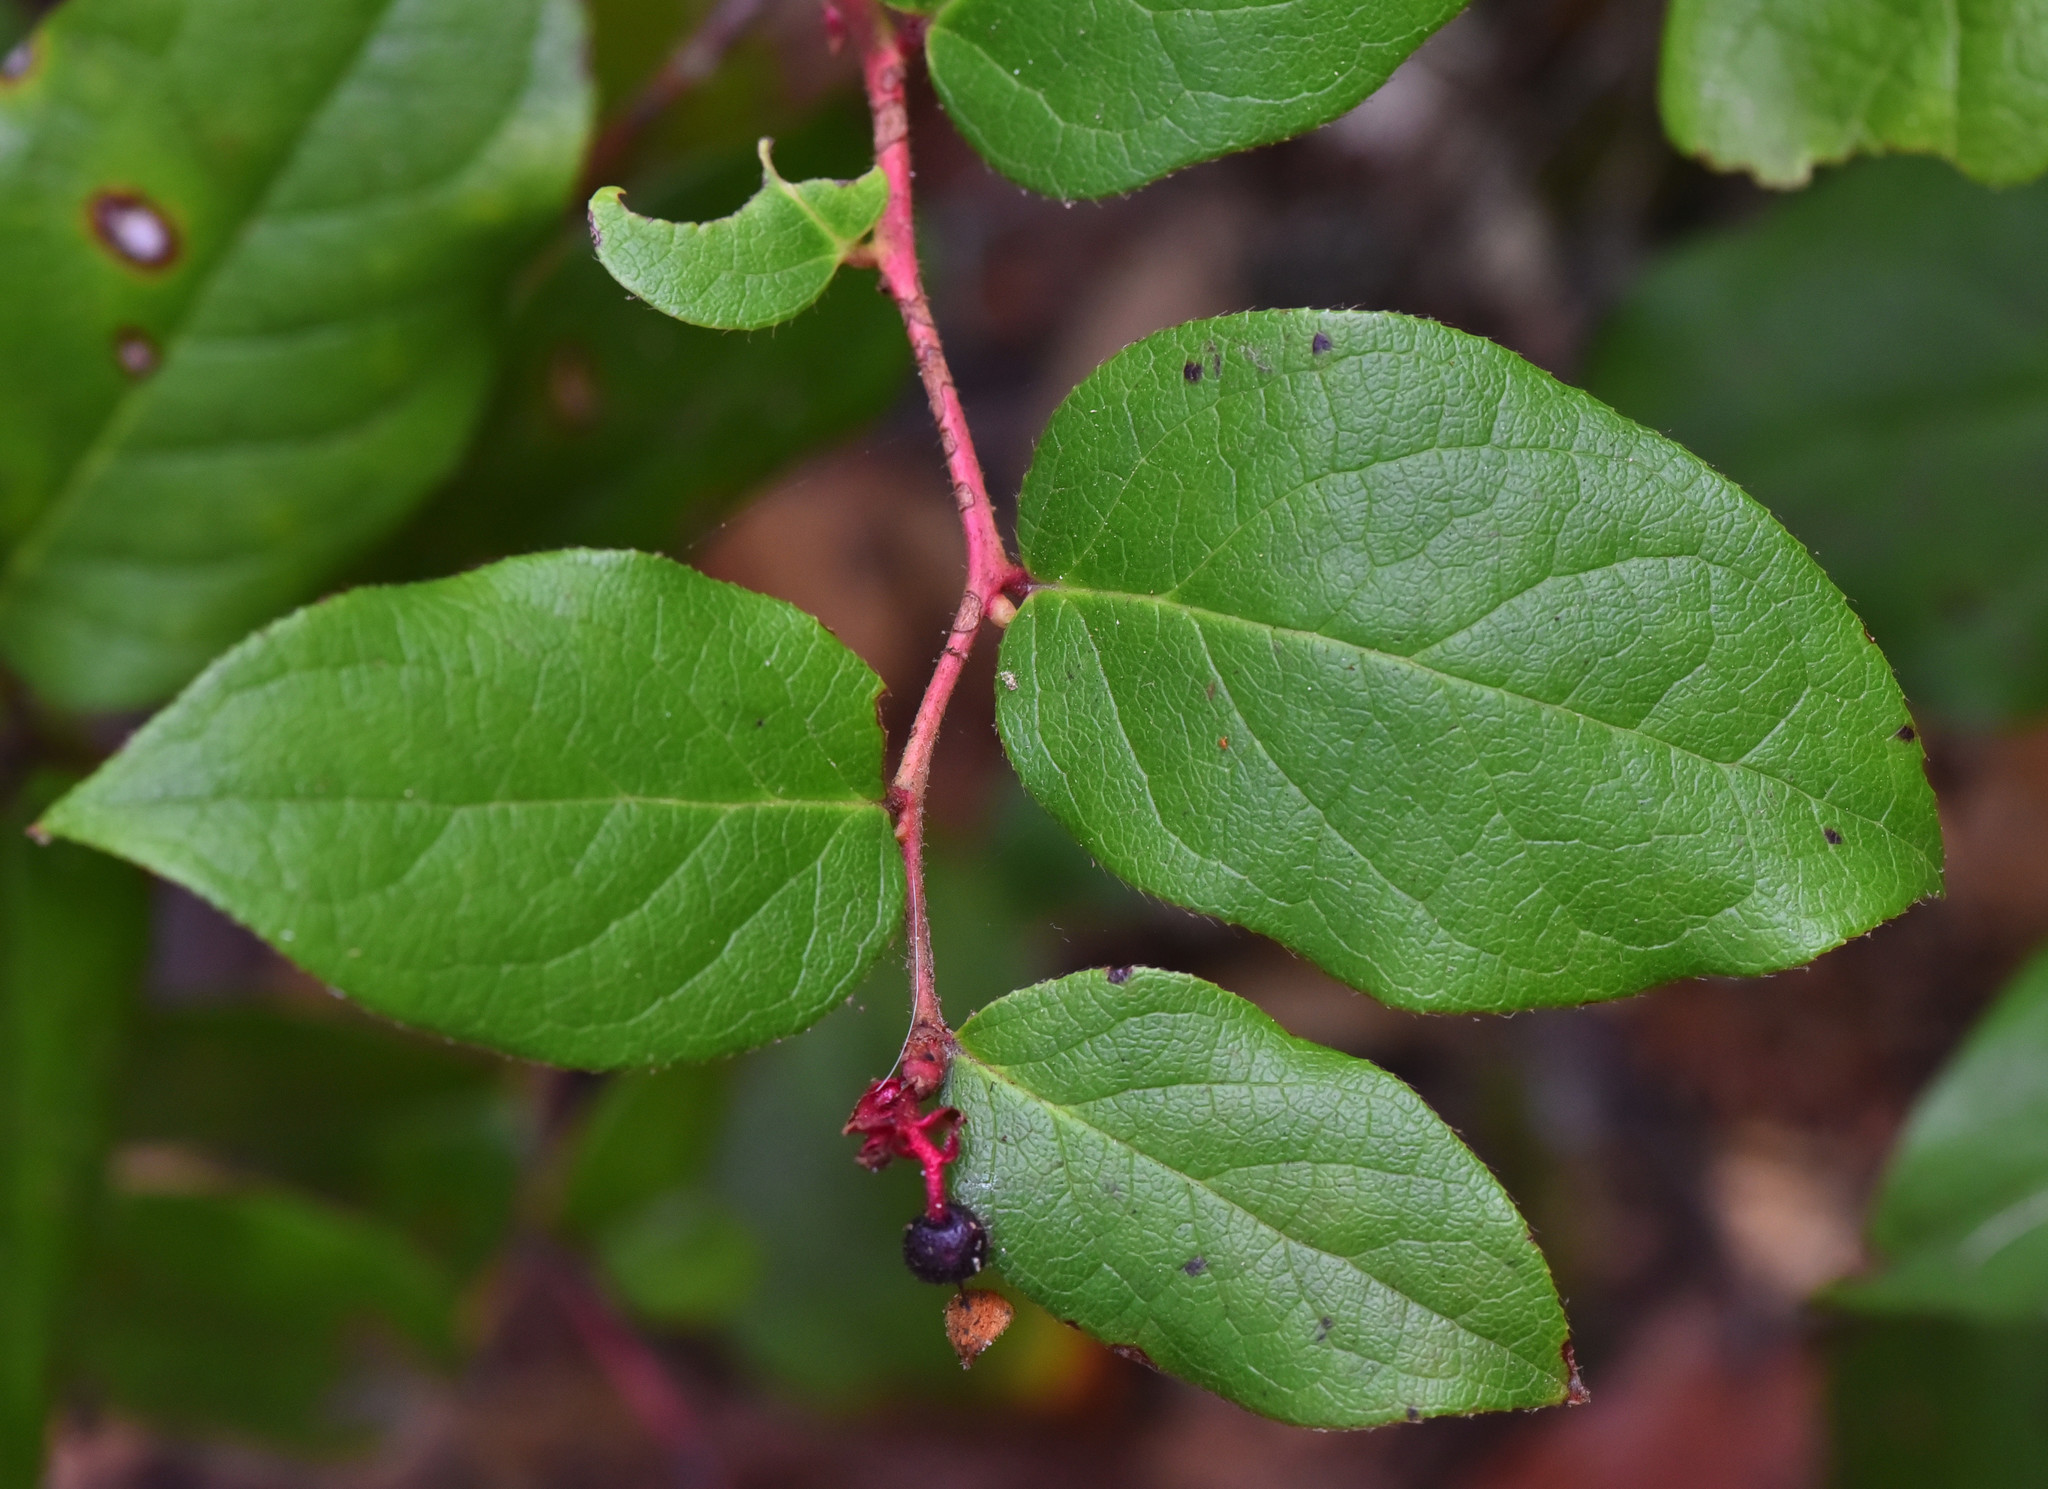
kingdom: Plantae
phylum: Tracheophyta
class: Magnoliopsida
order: Ericales
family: Ericaceae
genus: Gaultheria
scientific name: Gaultheria shallon
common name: Shallon
